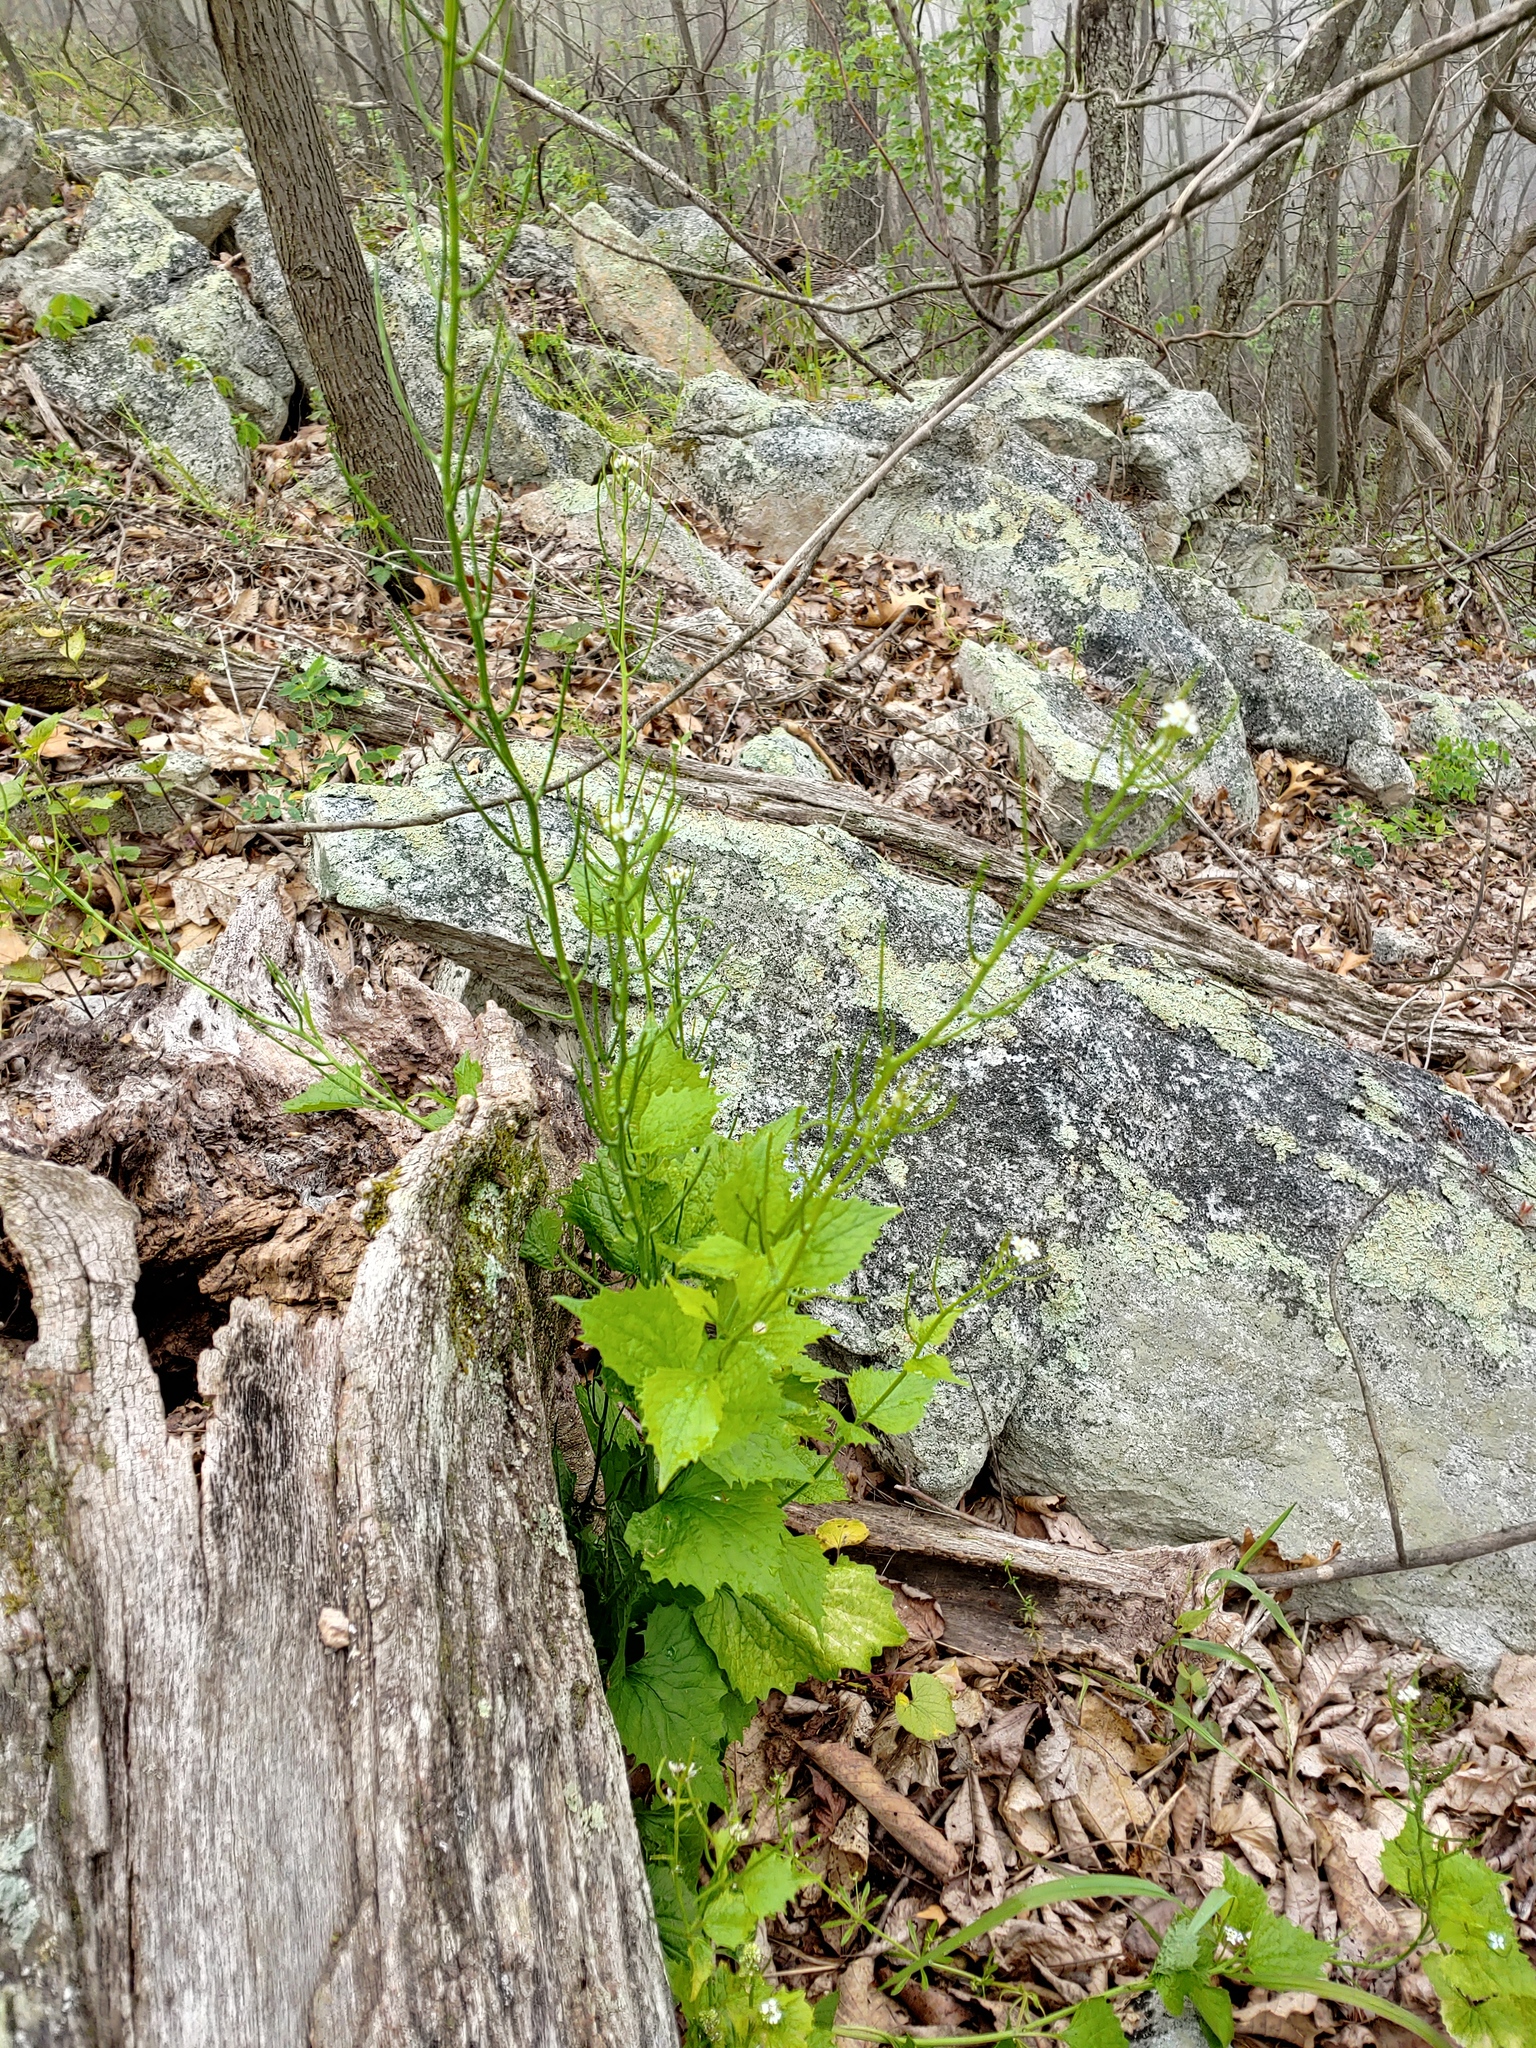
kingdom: Plantae
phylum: Tracheophyta
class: Magnoliopsida
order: Brassicales
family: Brassicaceae
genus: Alliaria
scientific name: Alliaria petiolata
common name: Garlic mustard
